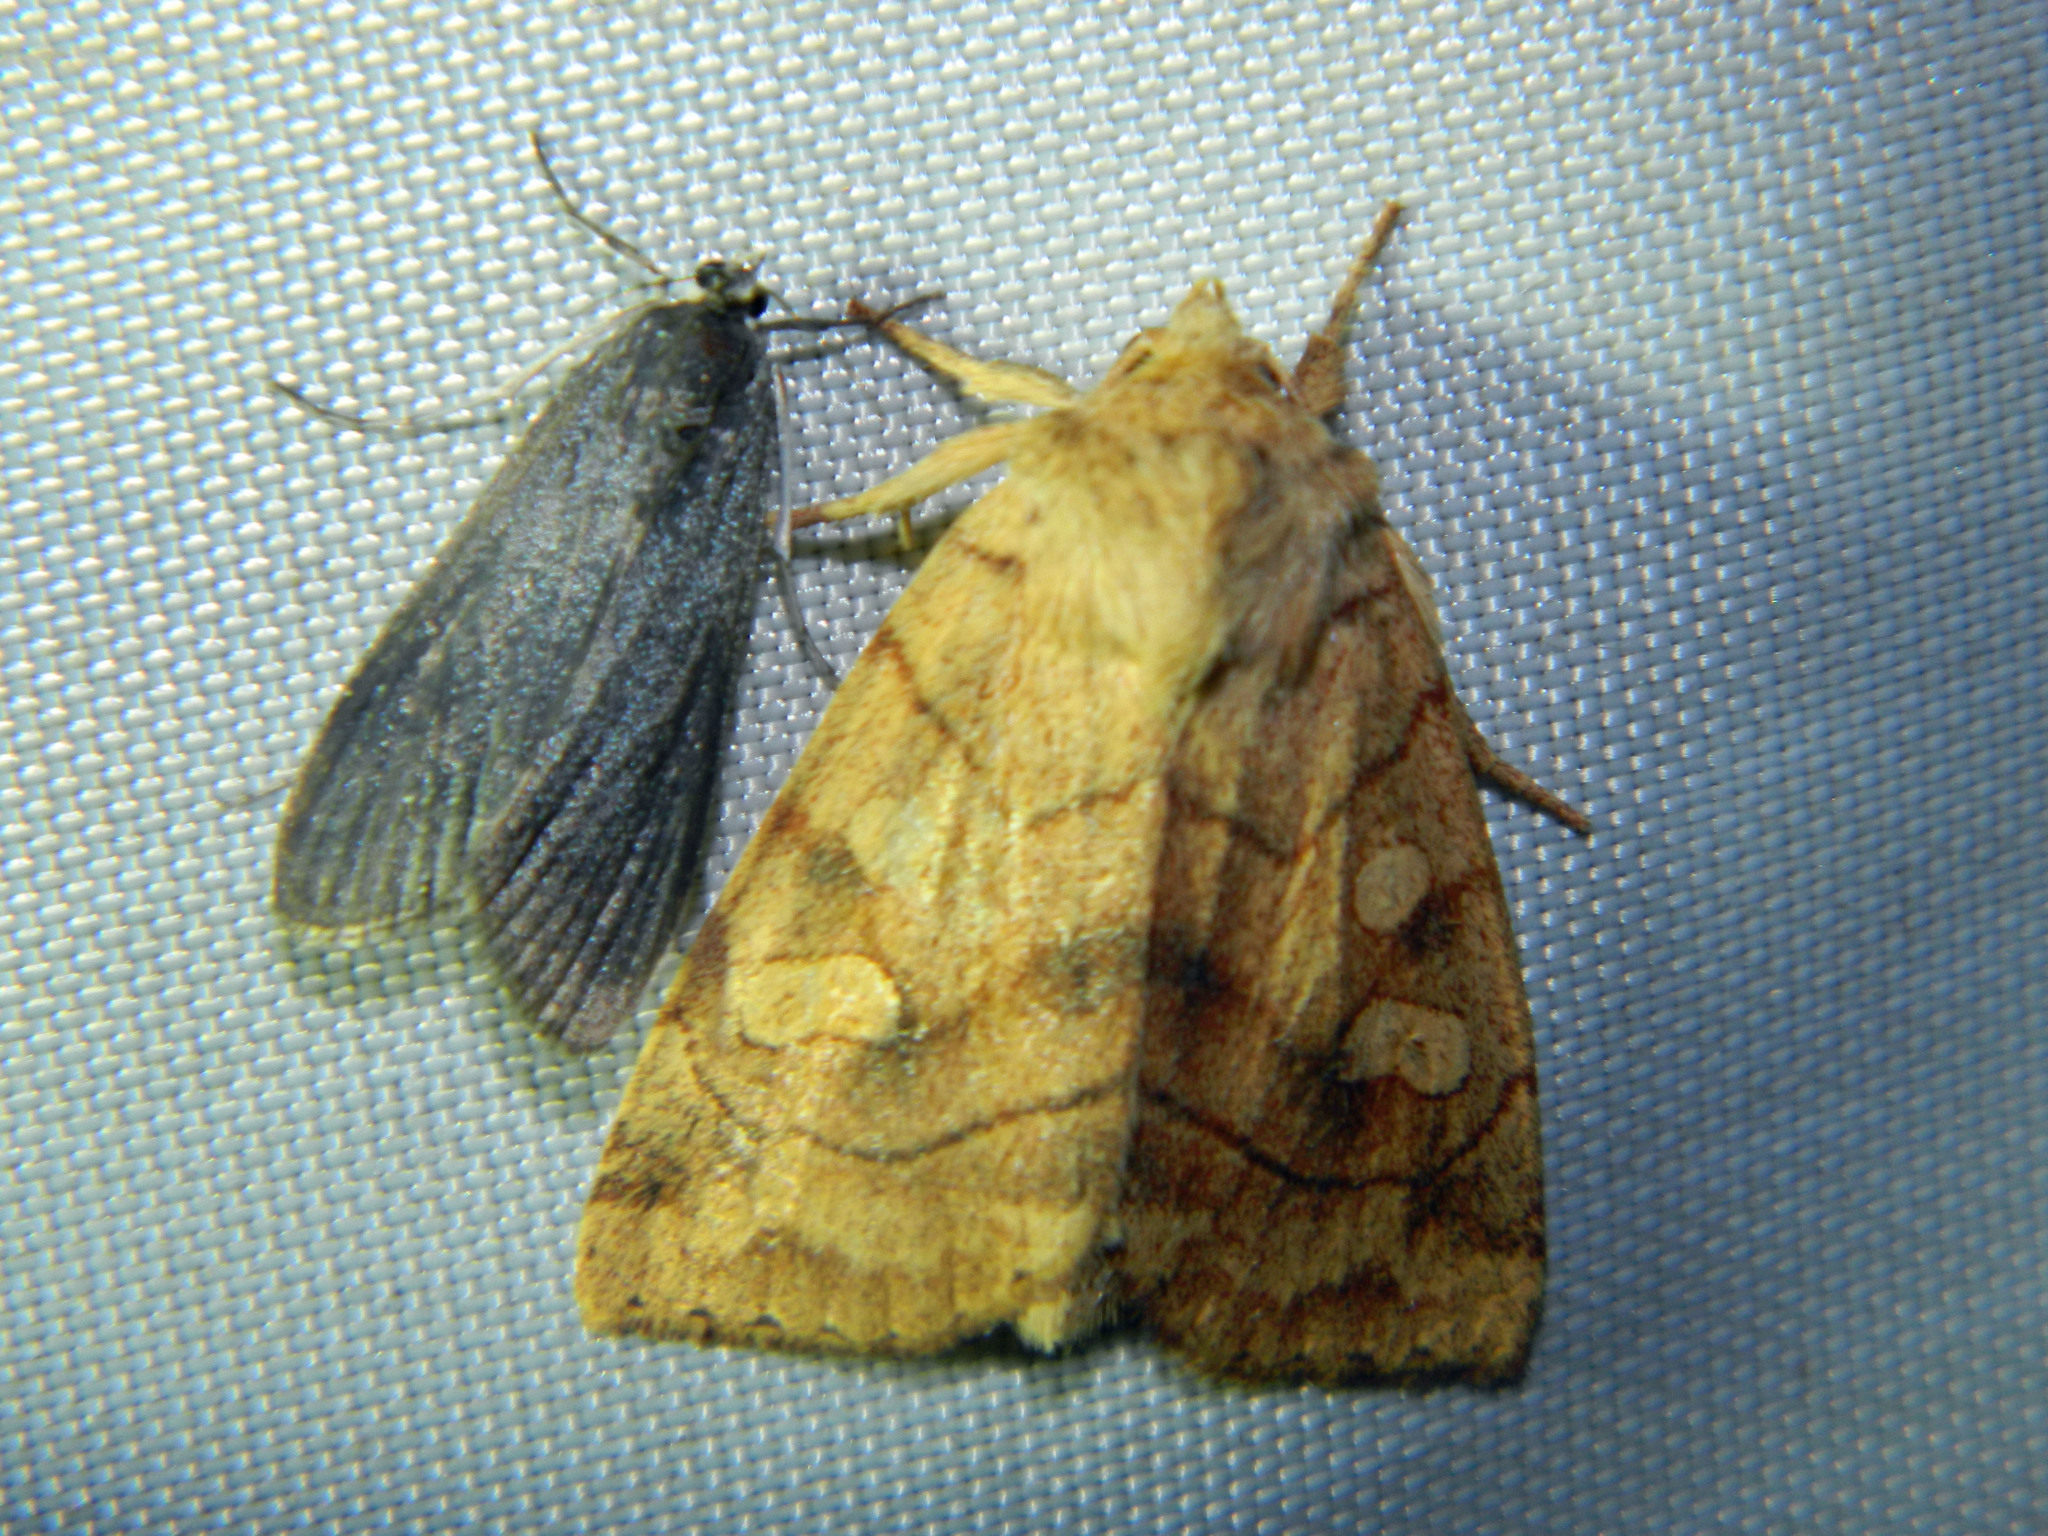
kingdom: Animalia
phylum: Arthropoda
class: Insecta
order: Lepidoptera
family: Noctuidae
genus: Enargia
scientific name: Enargia decolor
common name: Aspen twoleaf tier moth
